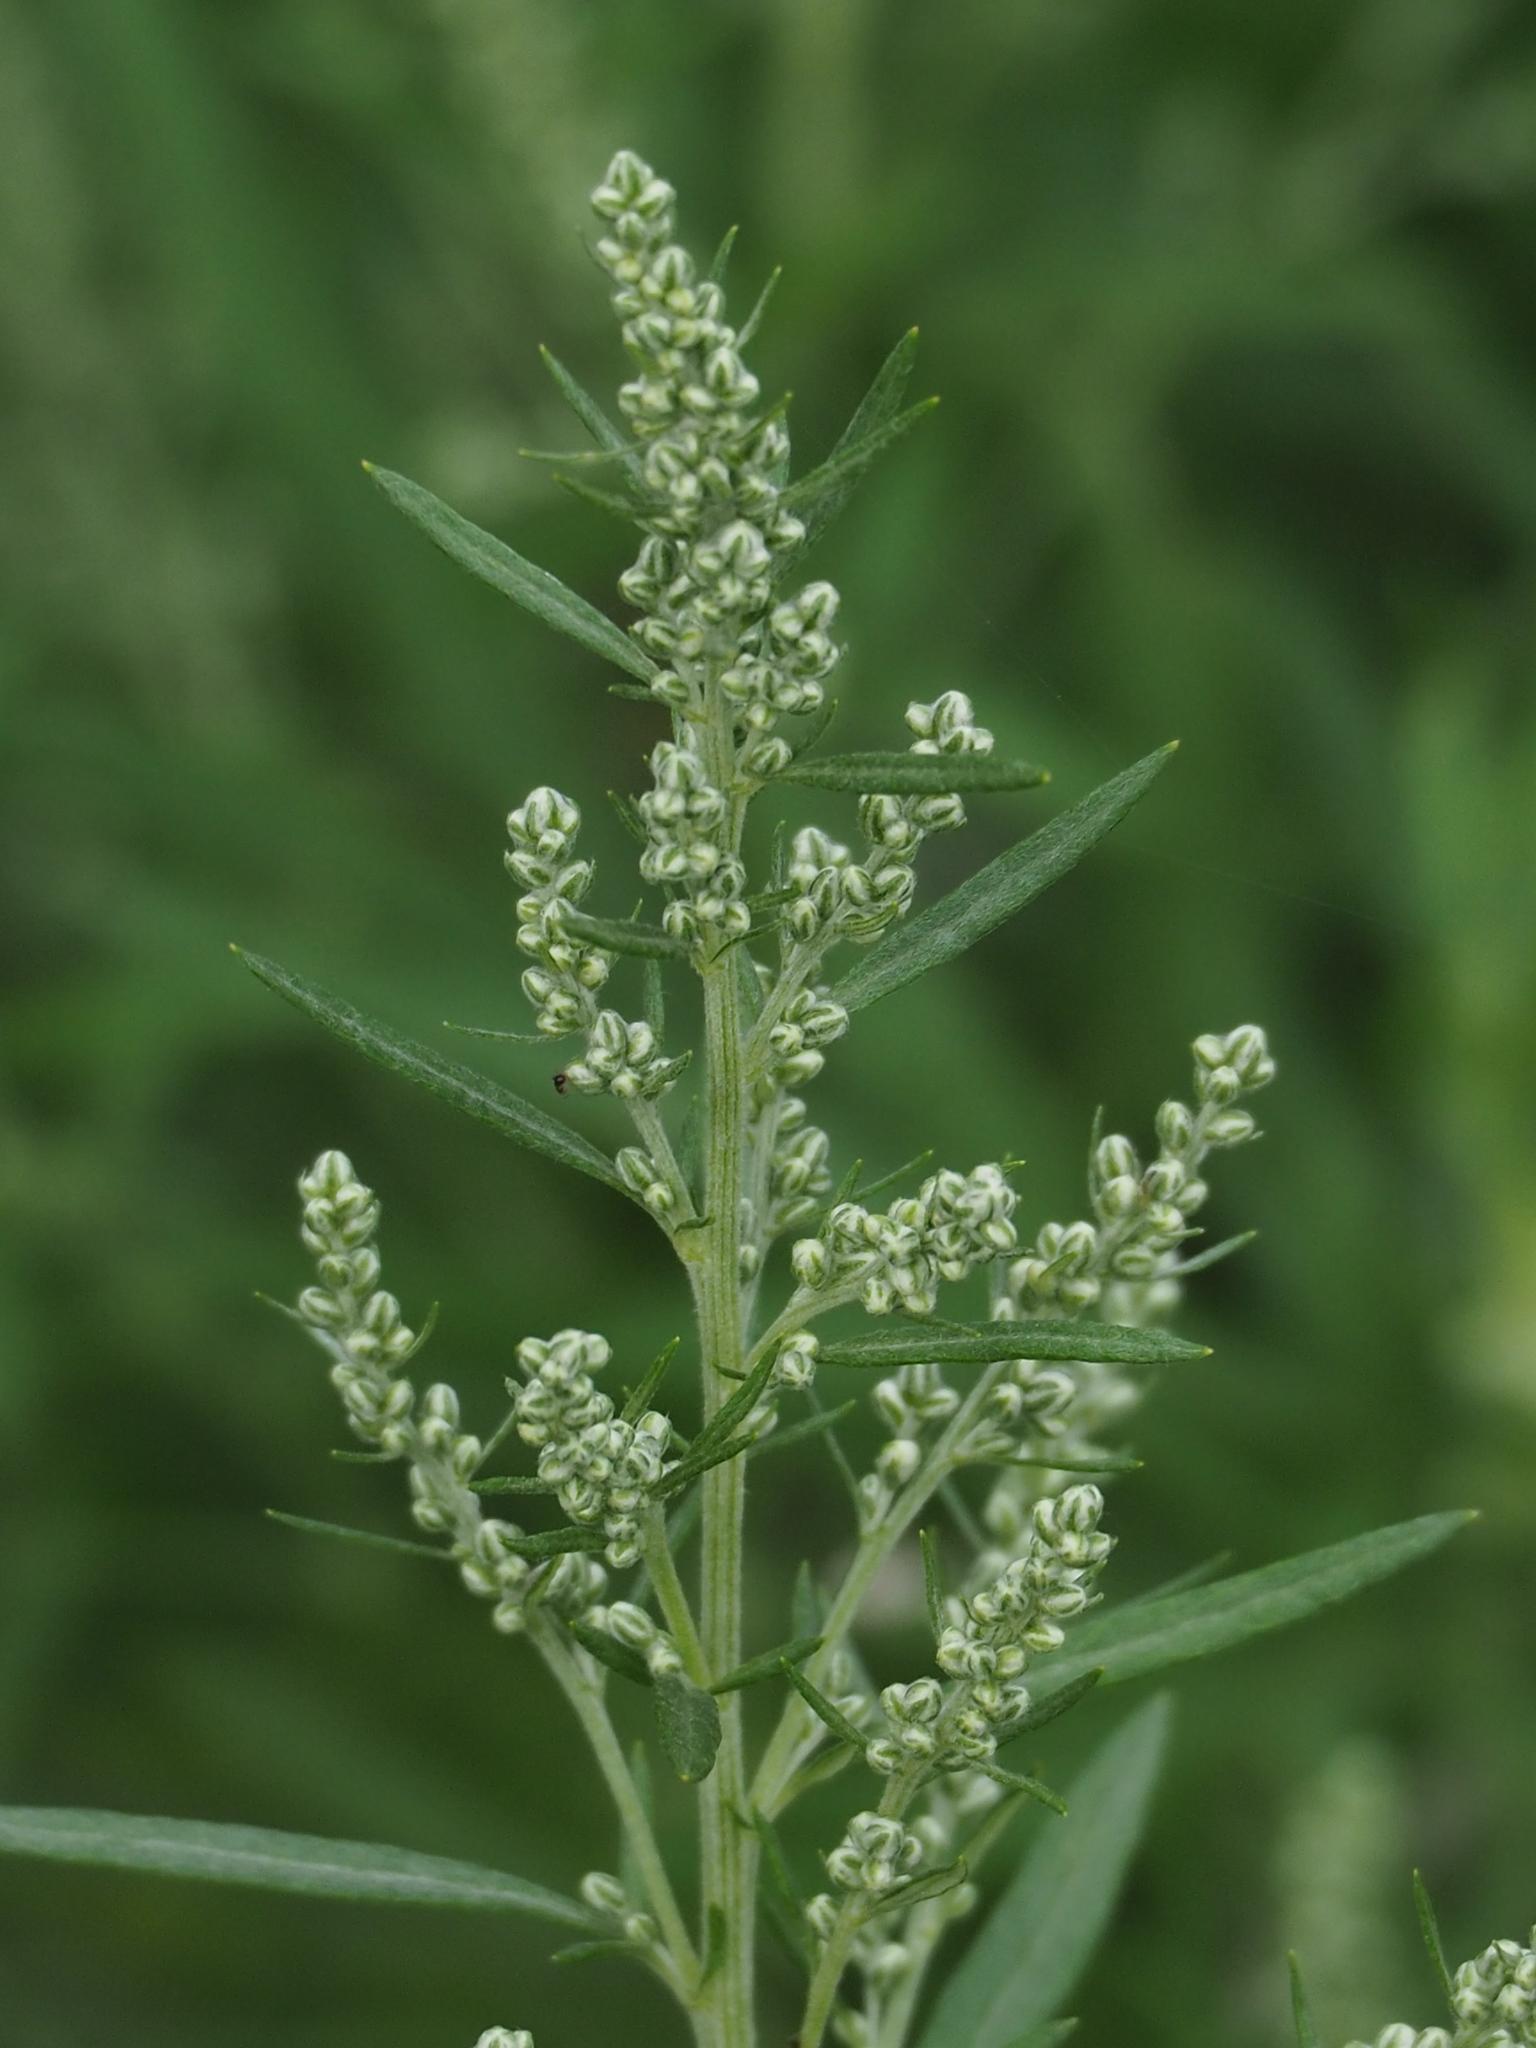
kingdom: Plantae
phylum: Tracheophyta
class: Magnoliopsida
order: Asterales
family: Asteraceae
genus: Artemisia
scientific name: Artemisia indica
